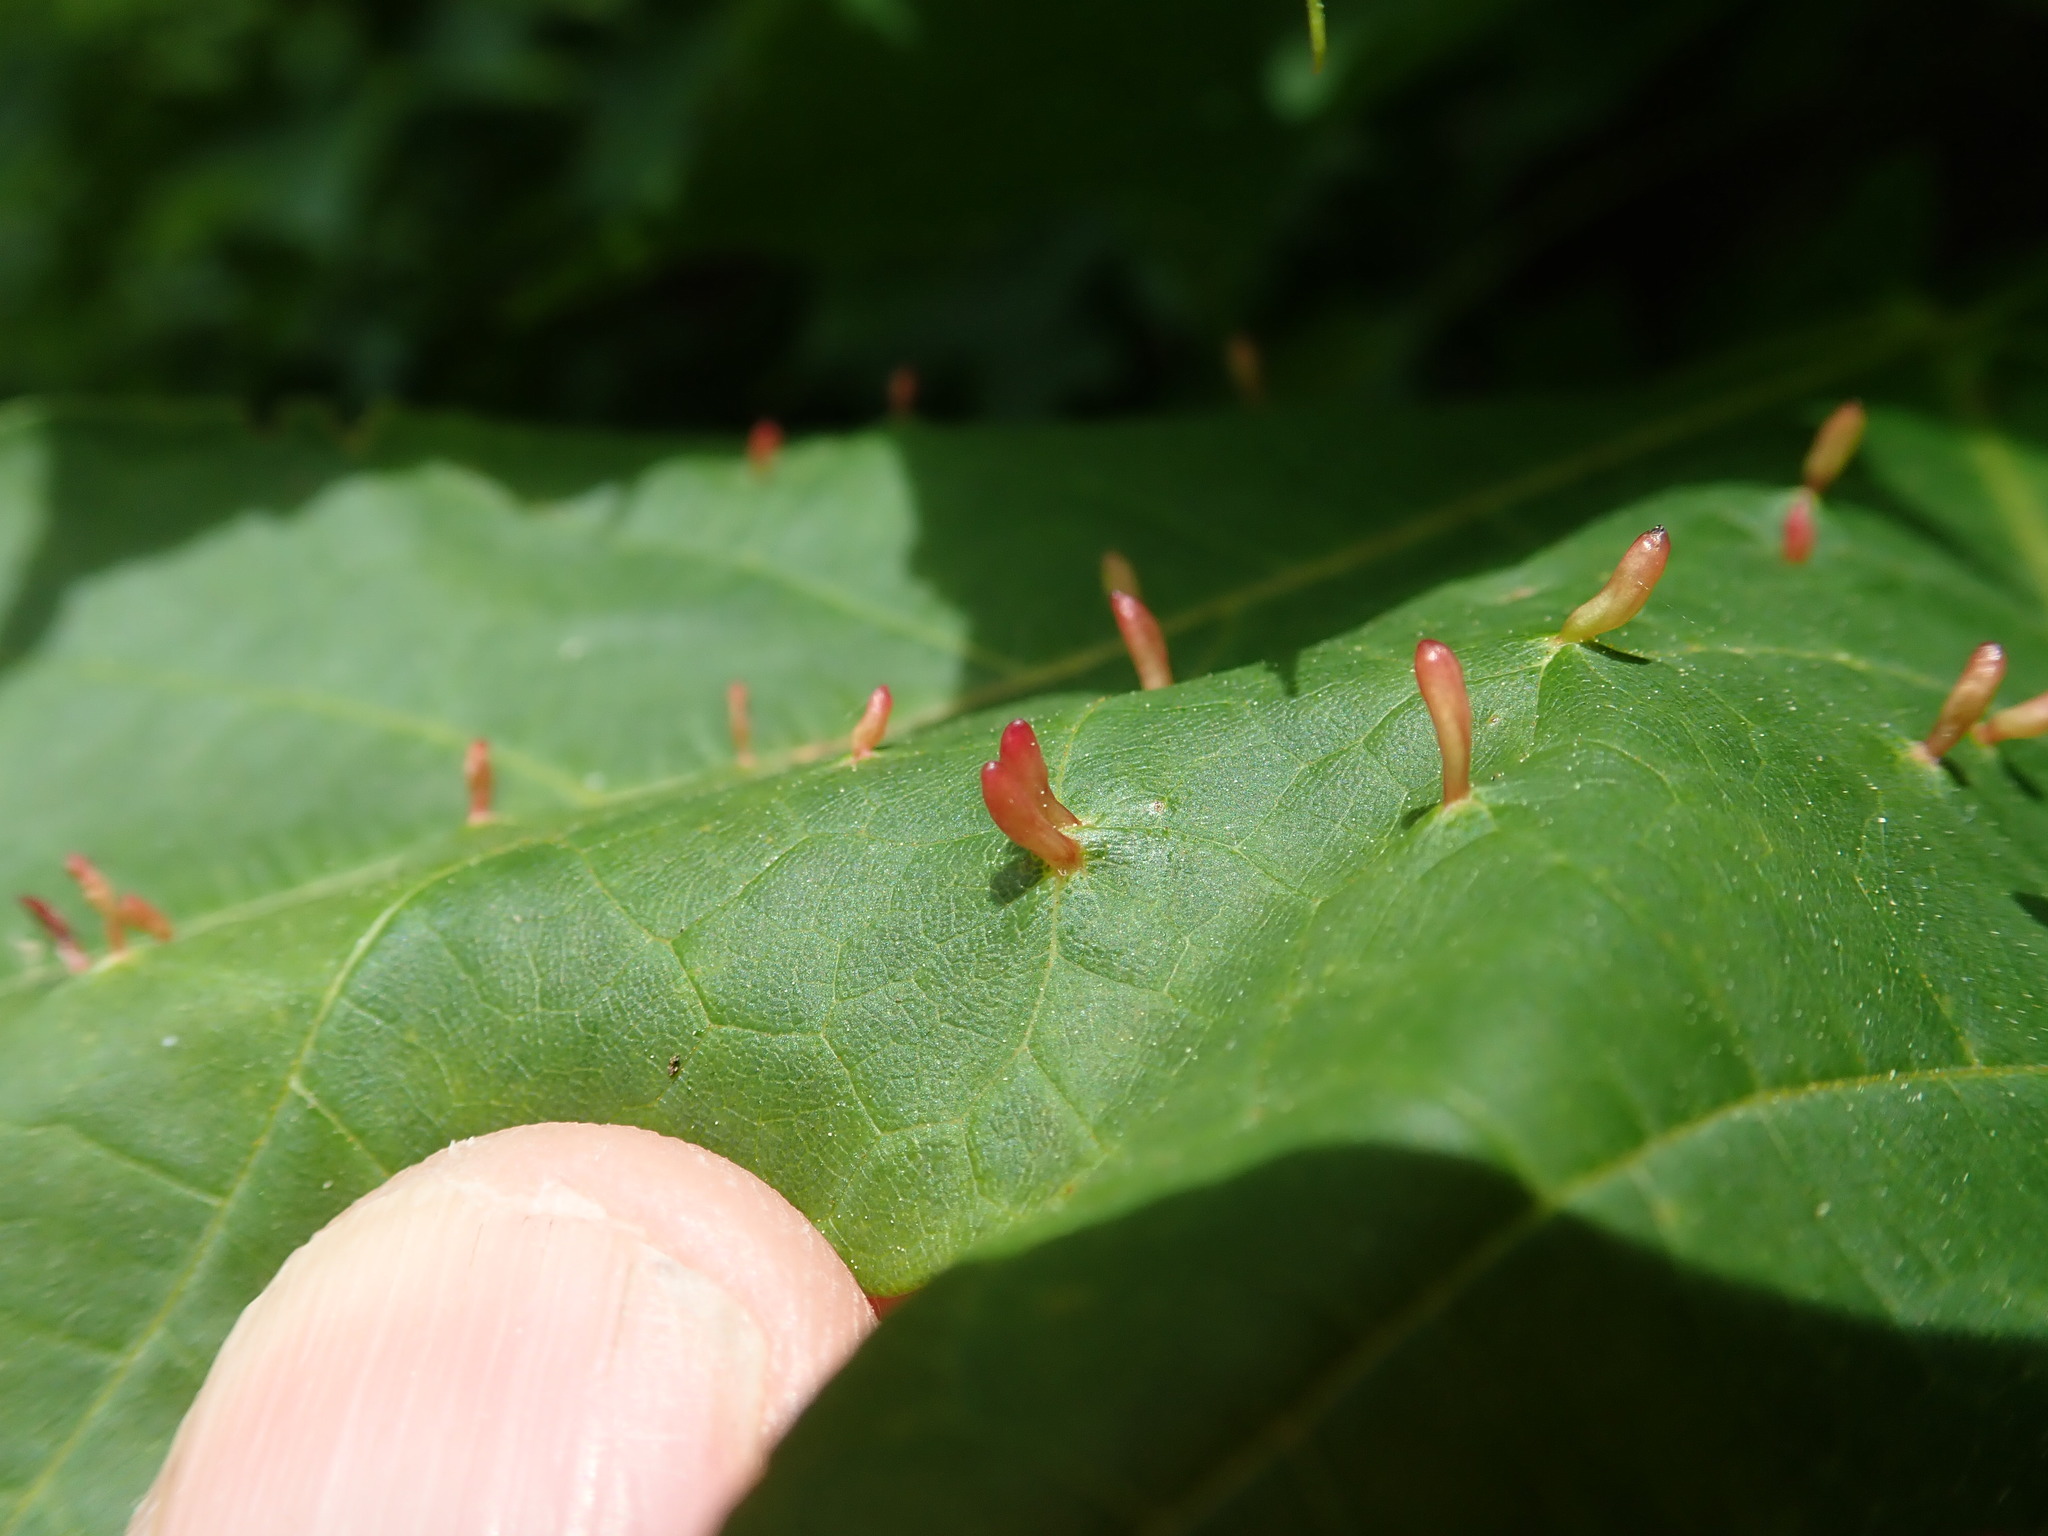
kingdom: Animalia
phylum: Arthropoda
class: Arachnida
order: Trombidiformes
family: Eriophyidae
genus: Vasates
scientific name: Vasates aceriscrumena
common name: Maple spindle gall mite
